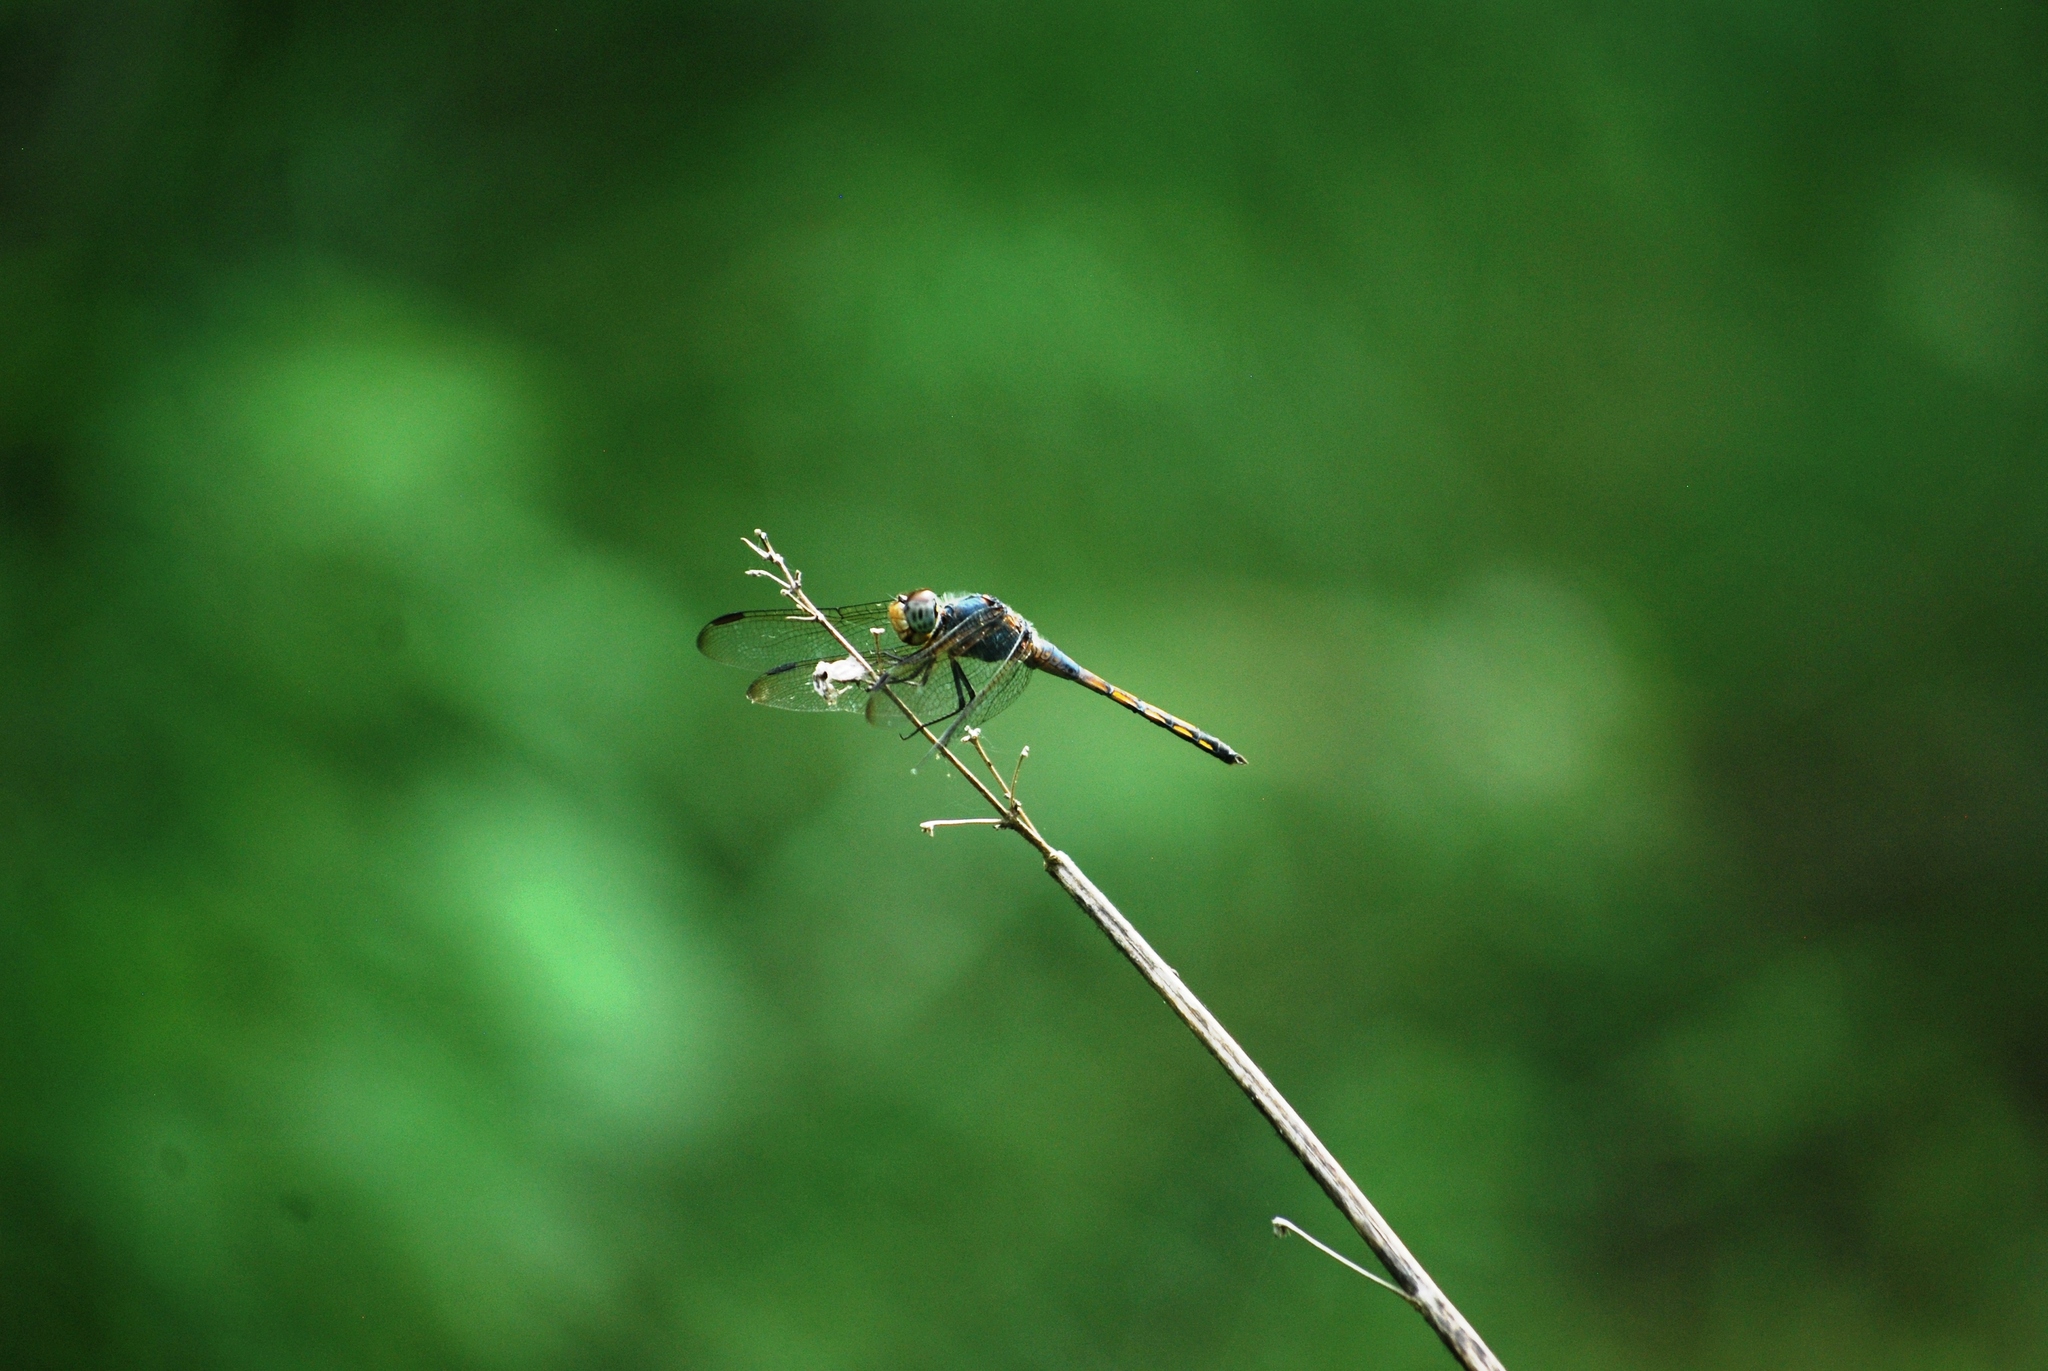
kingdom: Animalia
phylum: Arthropoda
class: Insecta
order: Odonata
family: Libellulidae
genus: Potamarcha
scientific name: Potamarcha congener
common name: Blue chaser
